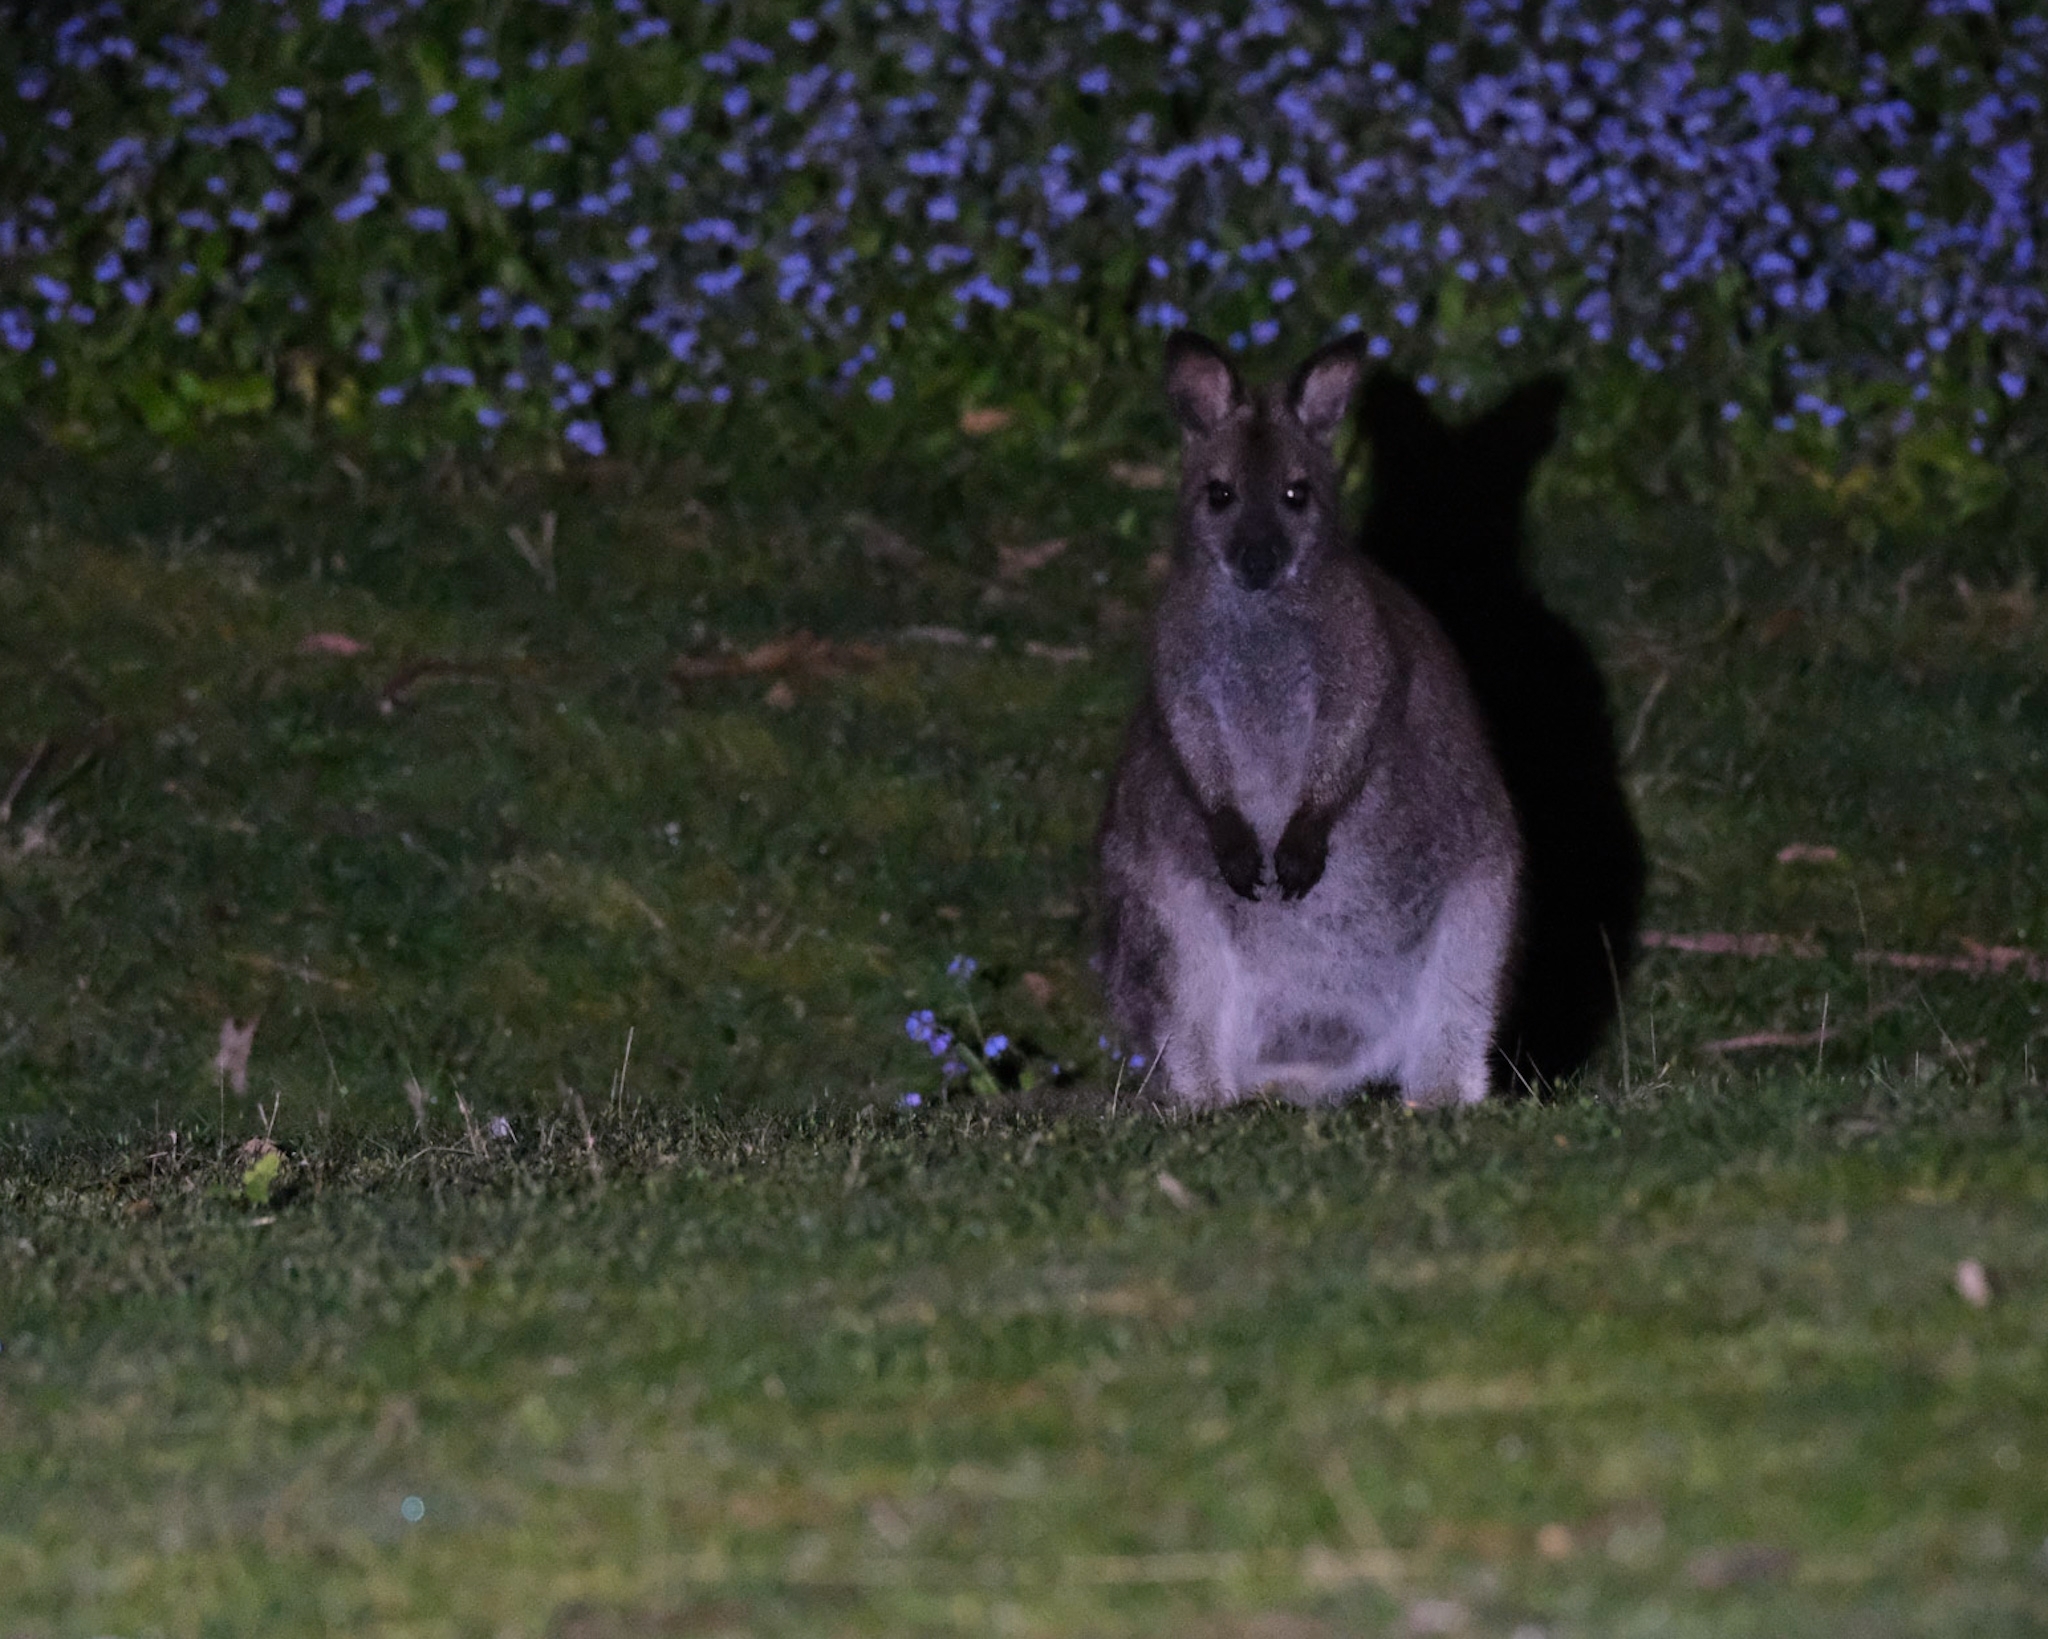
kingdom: Animalia
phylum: Chordata
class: Mammalia
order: Diprotodontia
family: Macropodidae
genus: Notamacropus
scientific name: Notamacropus rufogriseus
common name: Red-necked wallaby
